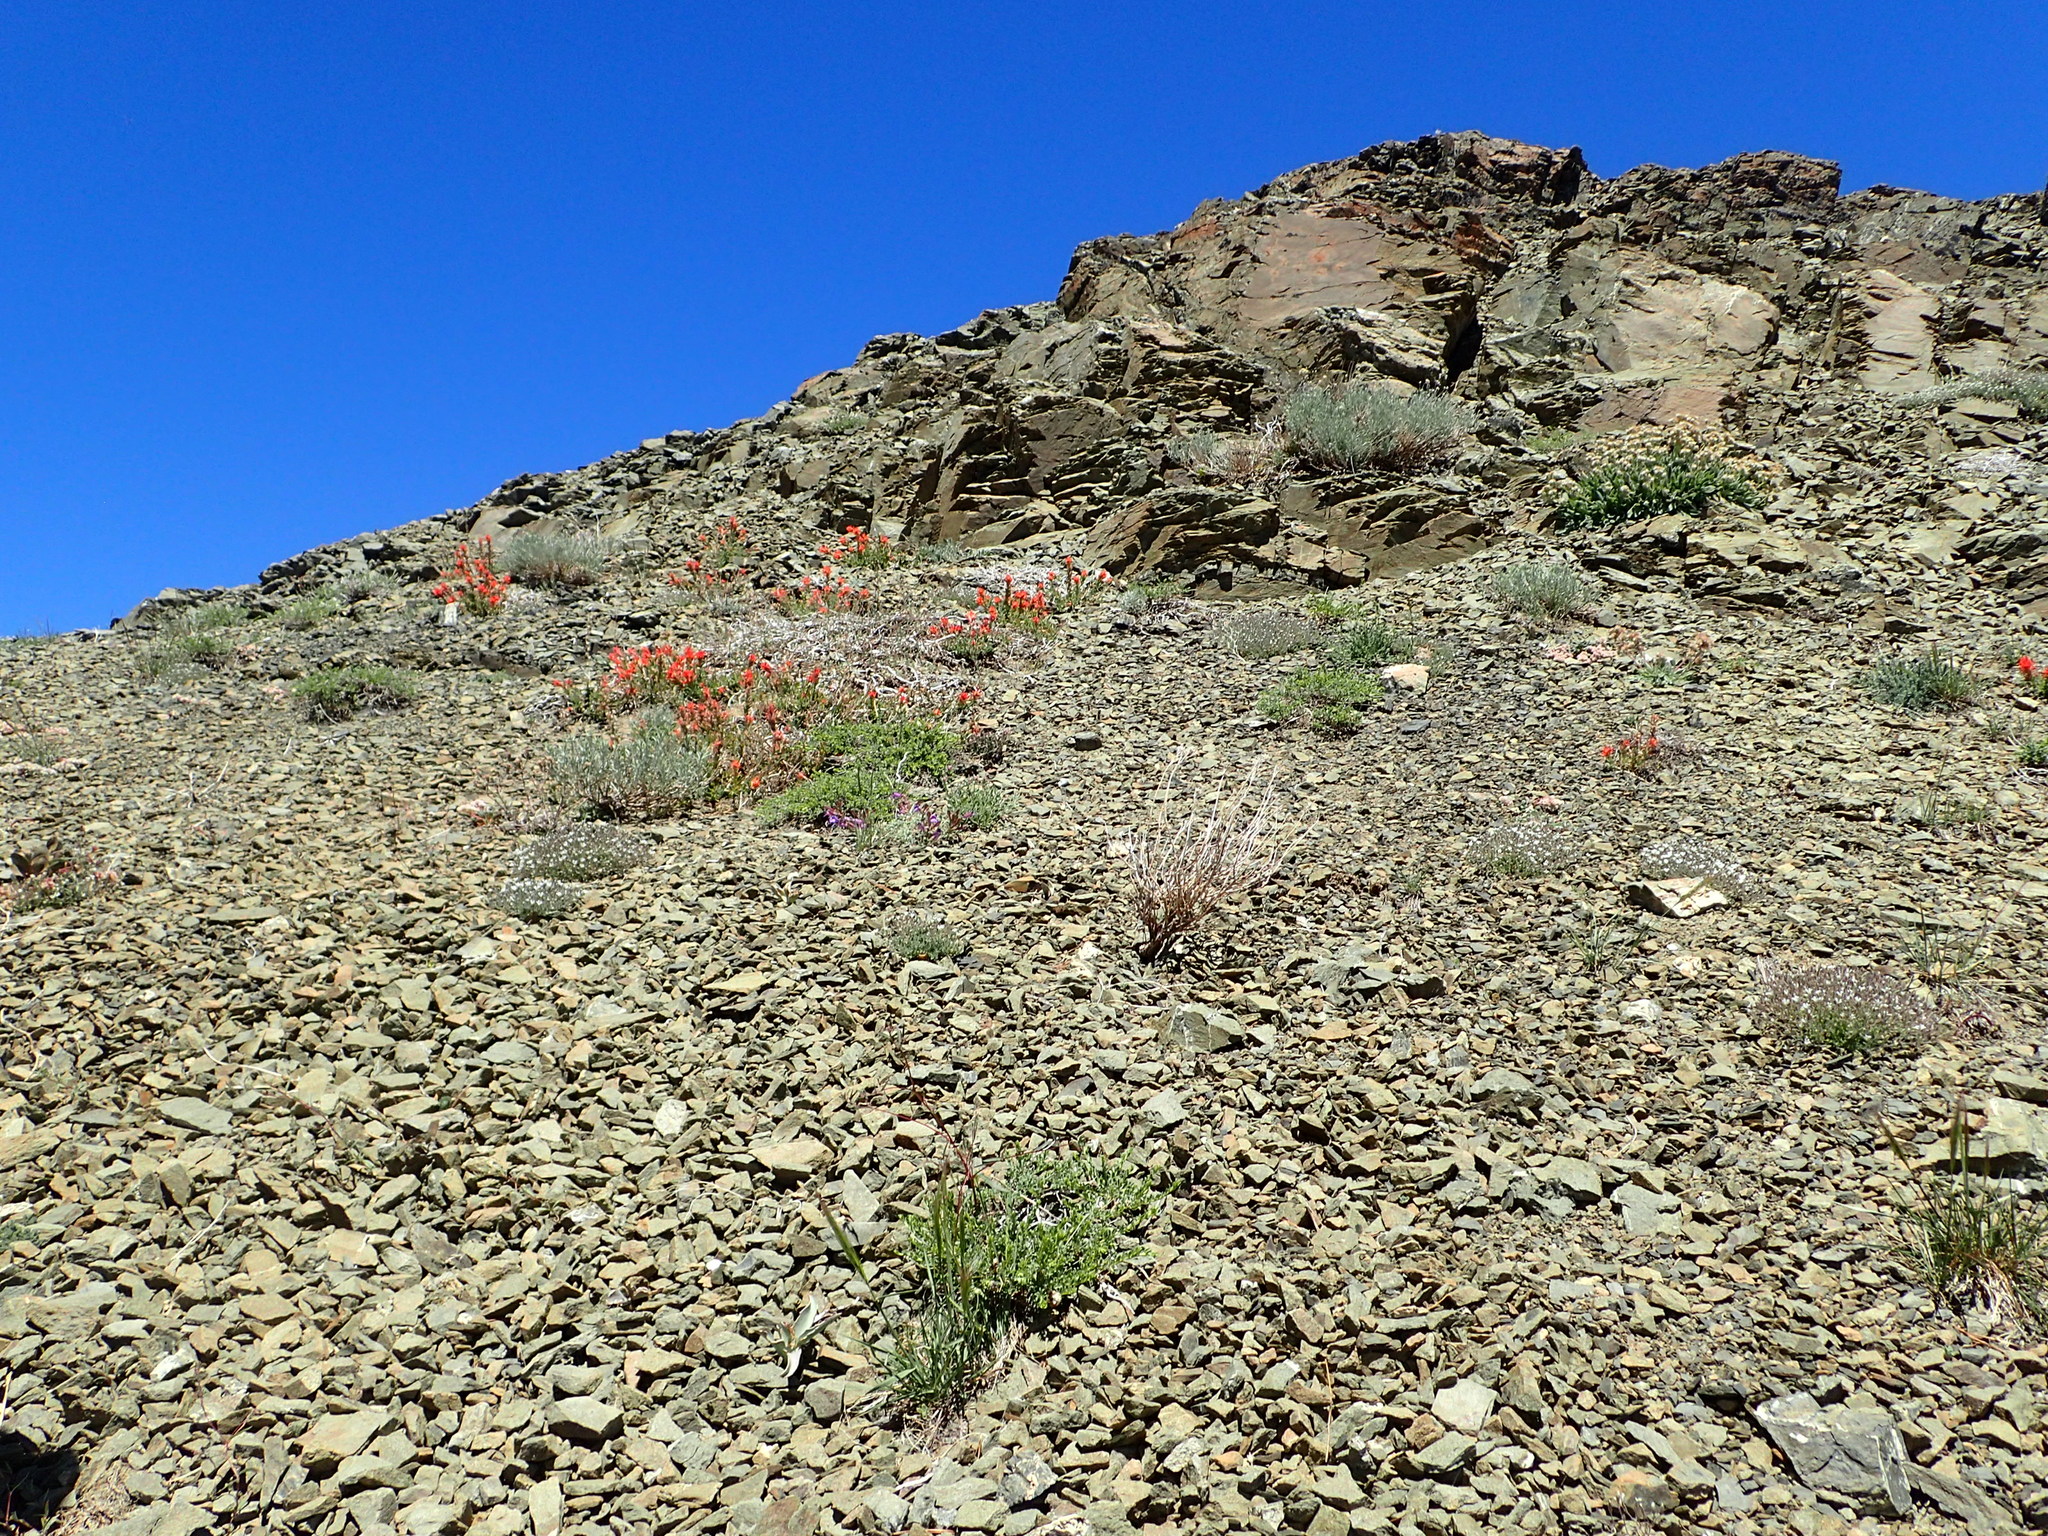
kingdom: Plantae
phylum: Tracheophyta
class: Liliopsida
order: Liliales
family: Liliaceae
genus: Fritillaria
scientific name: Fritillaria glauca
